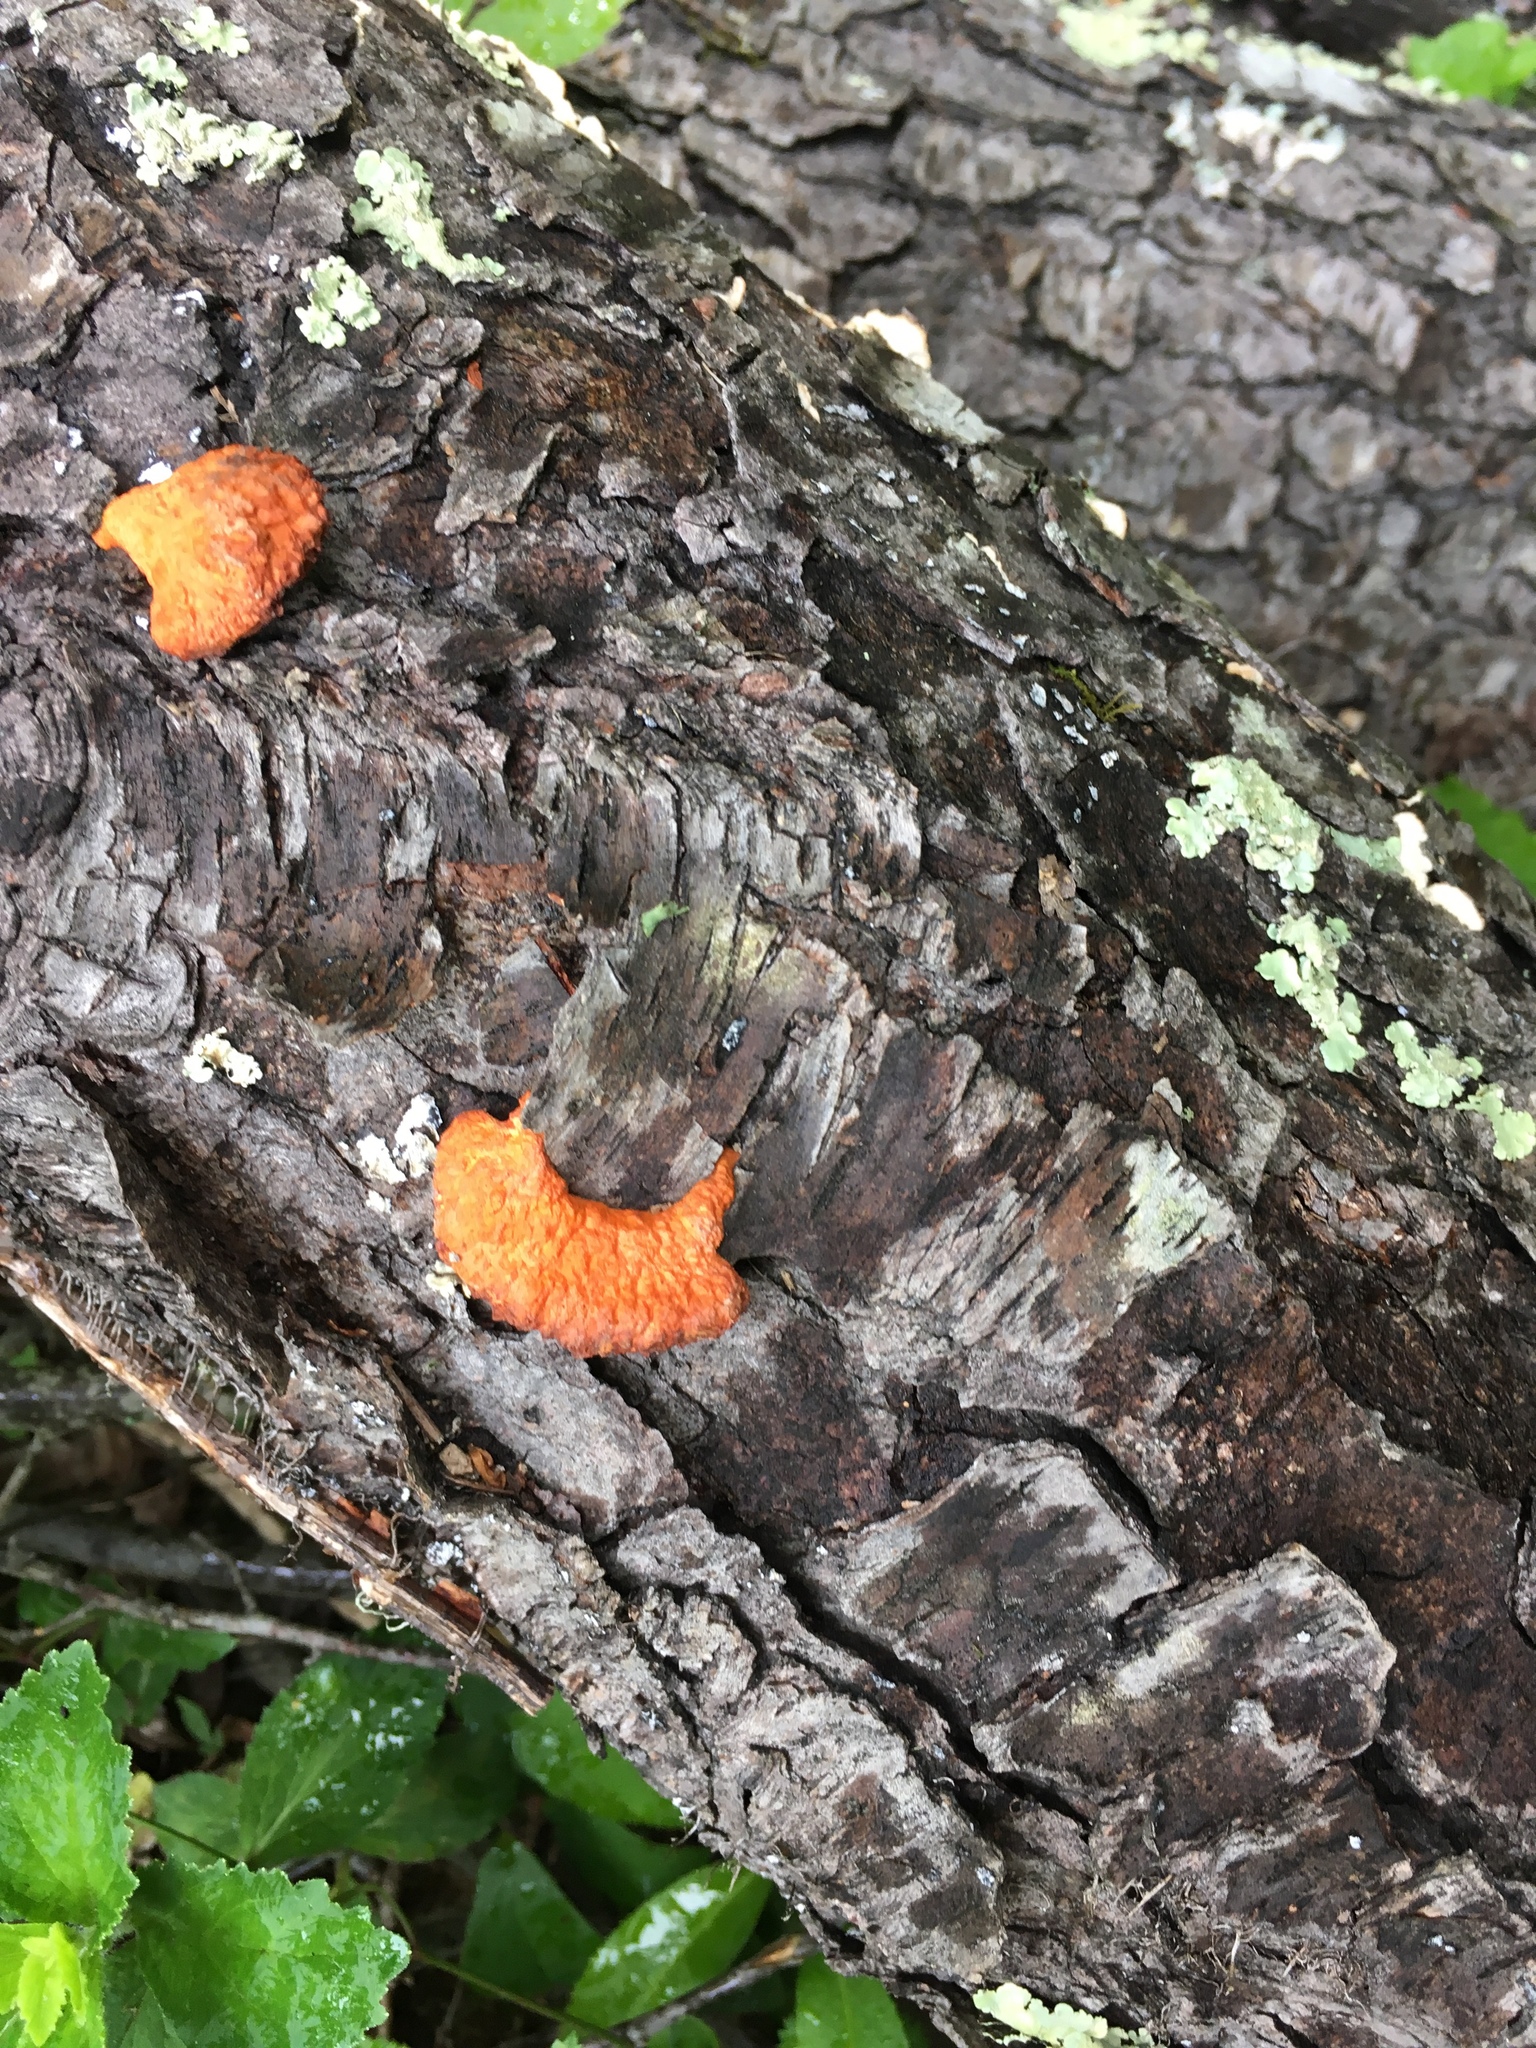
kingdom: Fungi
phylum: Basidiomycota
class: Agaricomycetes
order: Polyporales
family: Polyporaceae
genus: Trametes
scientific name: Trametes cinnabarina
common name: Northern cinnabar polypore
